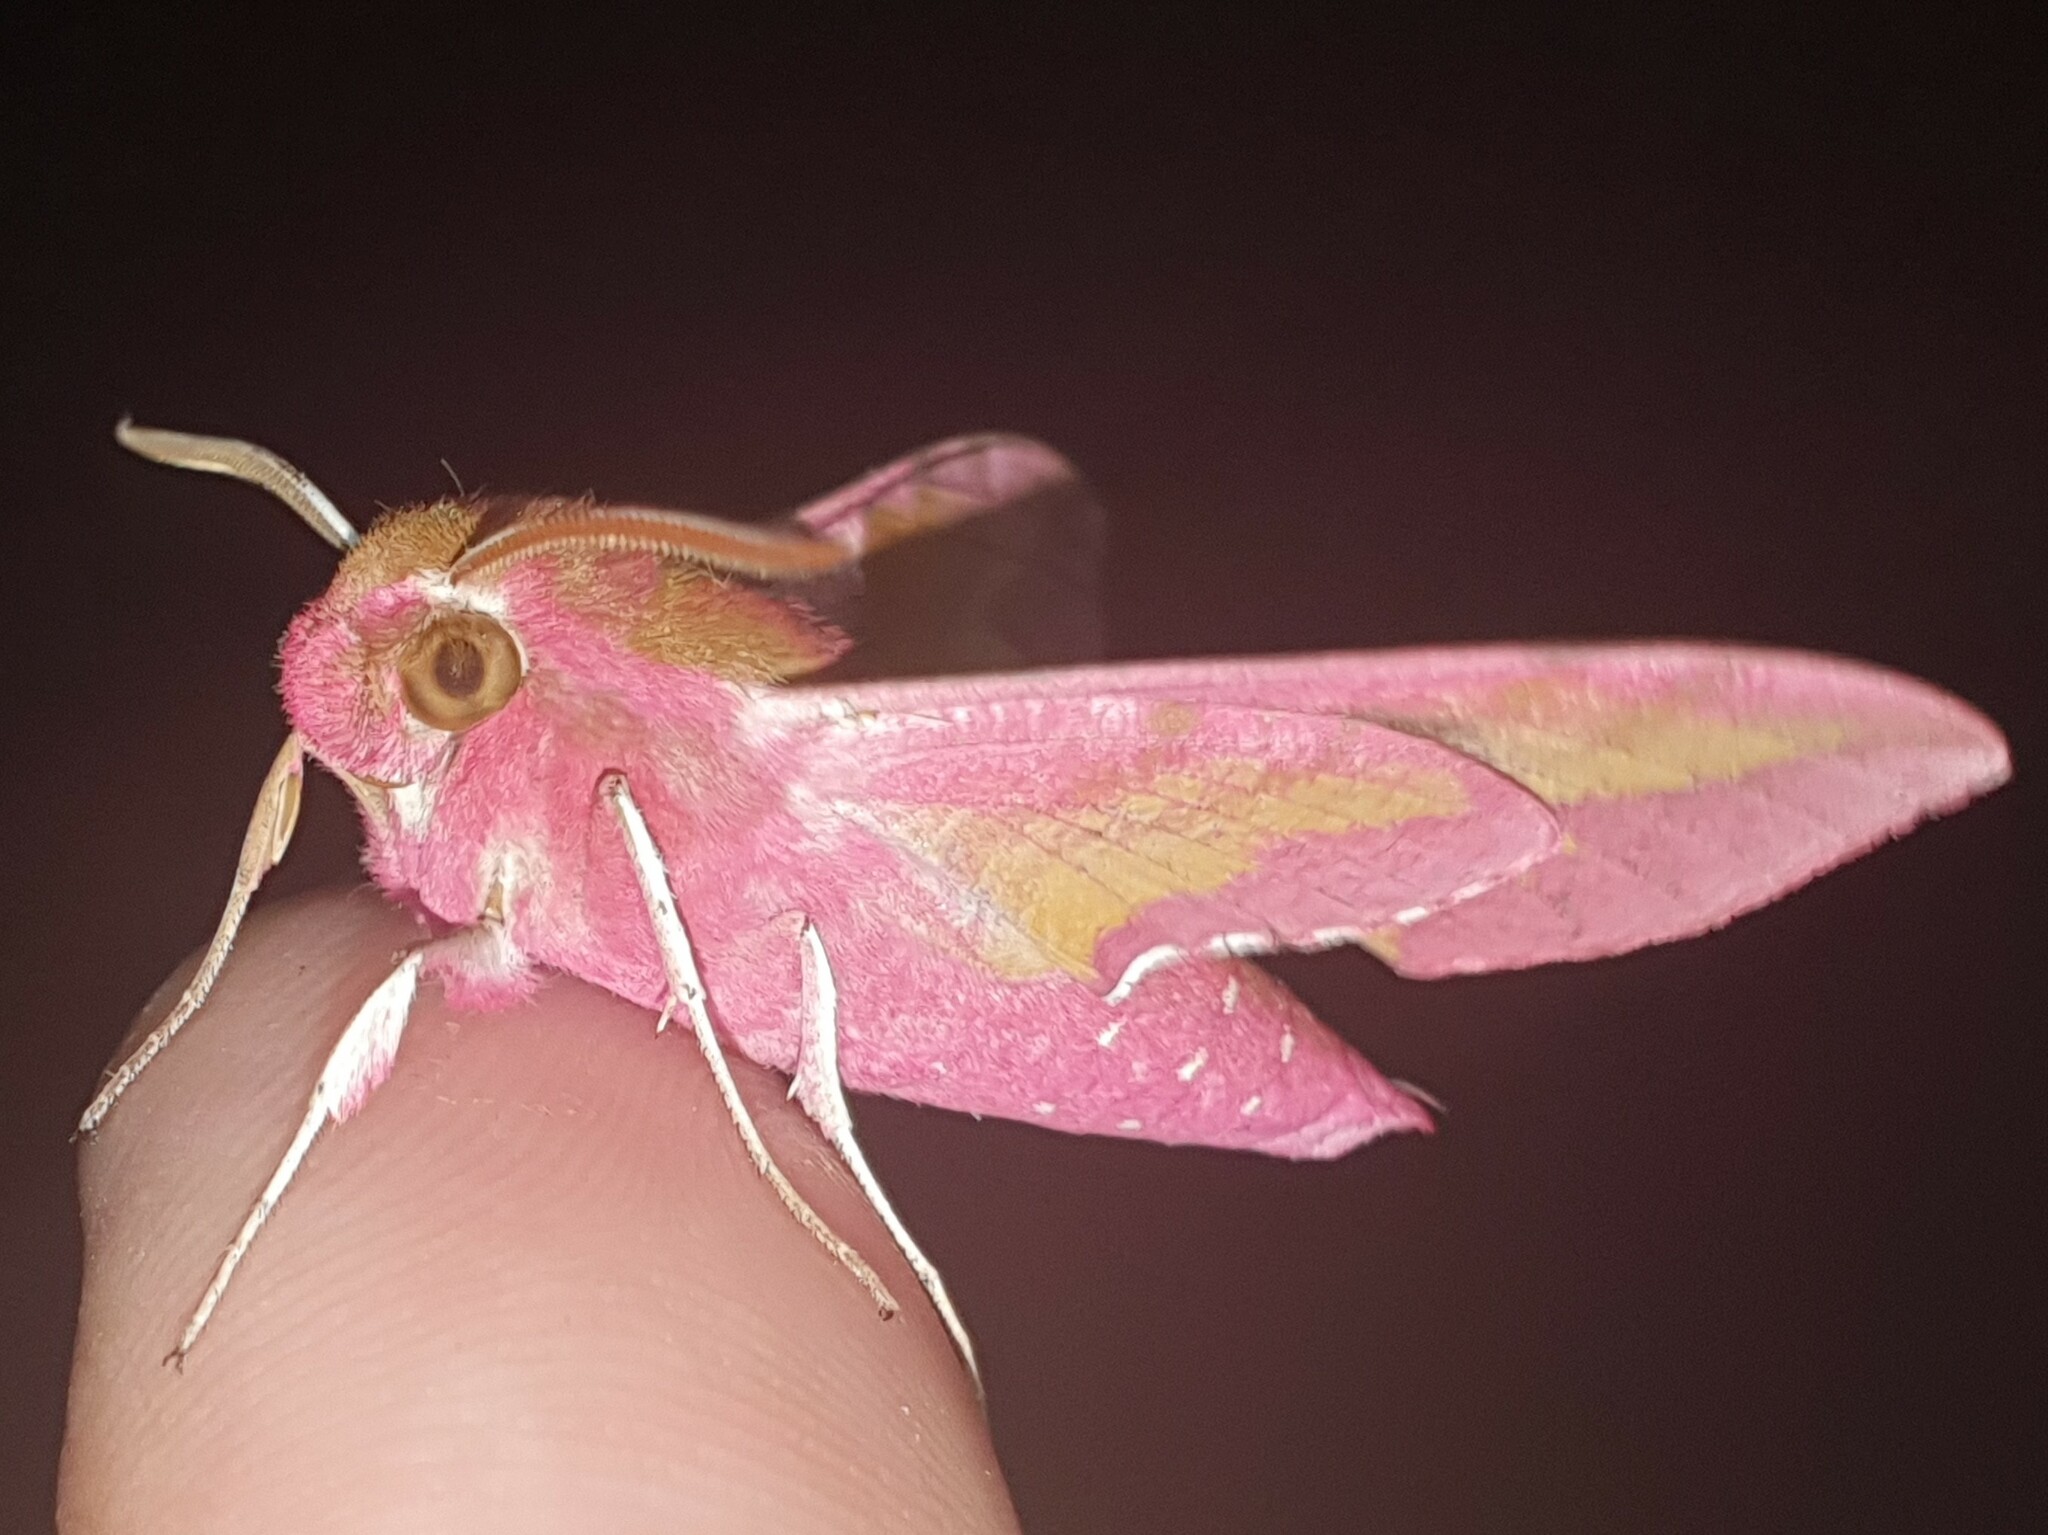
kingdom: Animalia
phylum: Arthropoda
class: Insecta
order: Lepidoptera
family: Sphingidae
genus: Deilephila
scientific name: Deilephila porcellus
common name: Small elephant hawk-moth
